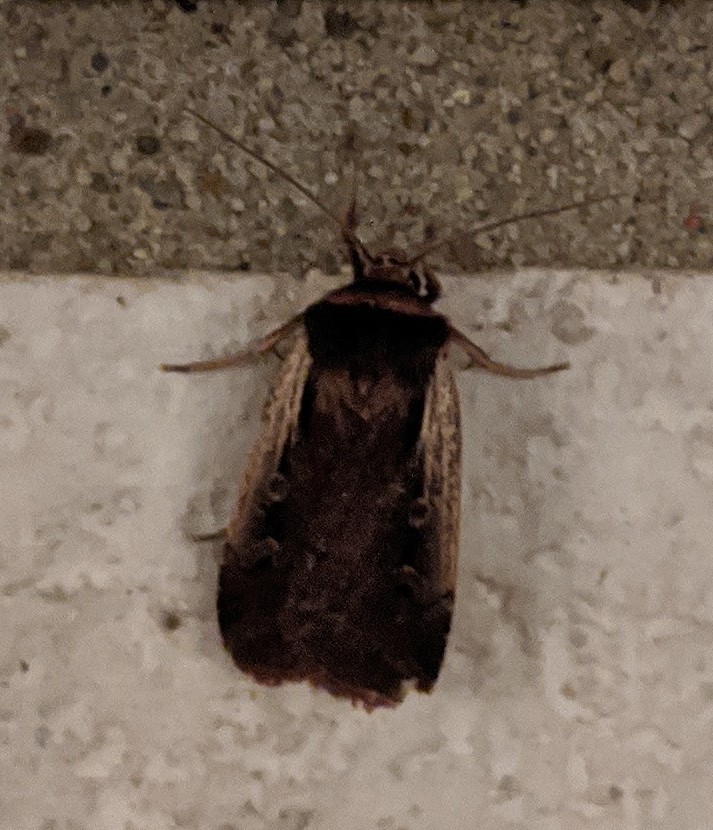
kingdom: Animalia
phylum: Arthropoda
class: Insecta
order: Lepidoptera
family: Noctuidae
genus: Ochropleura
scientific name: Ochropleura implecta
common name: Flame-shouldered dart
